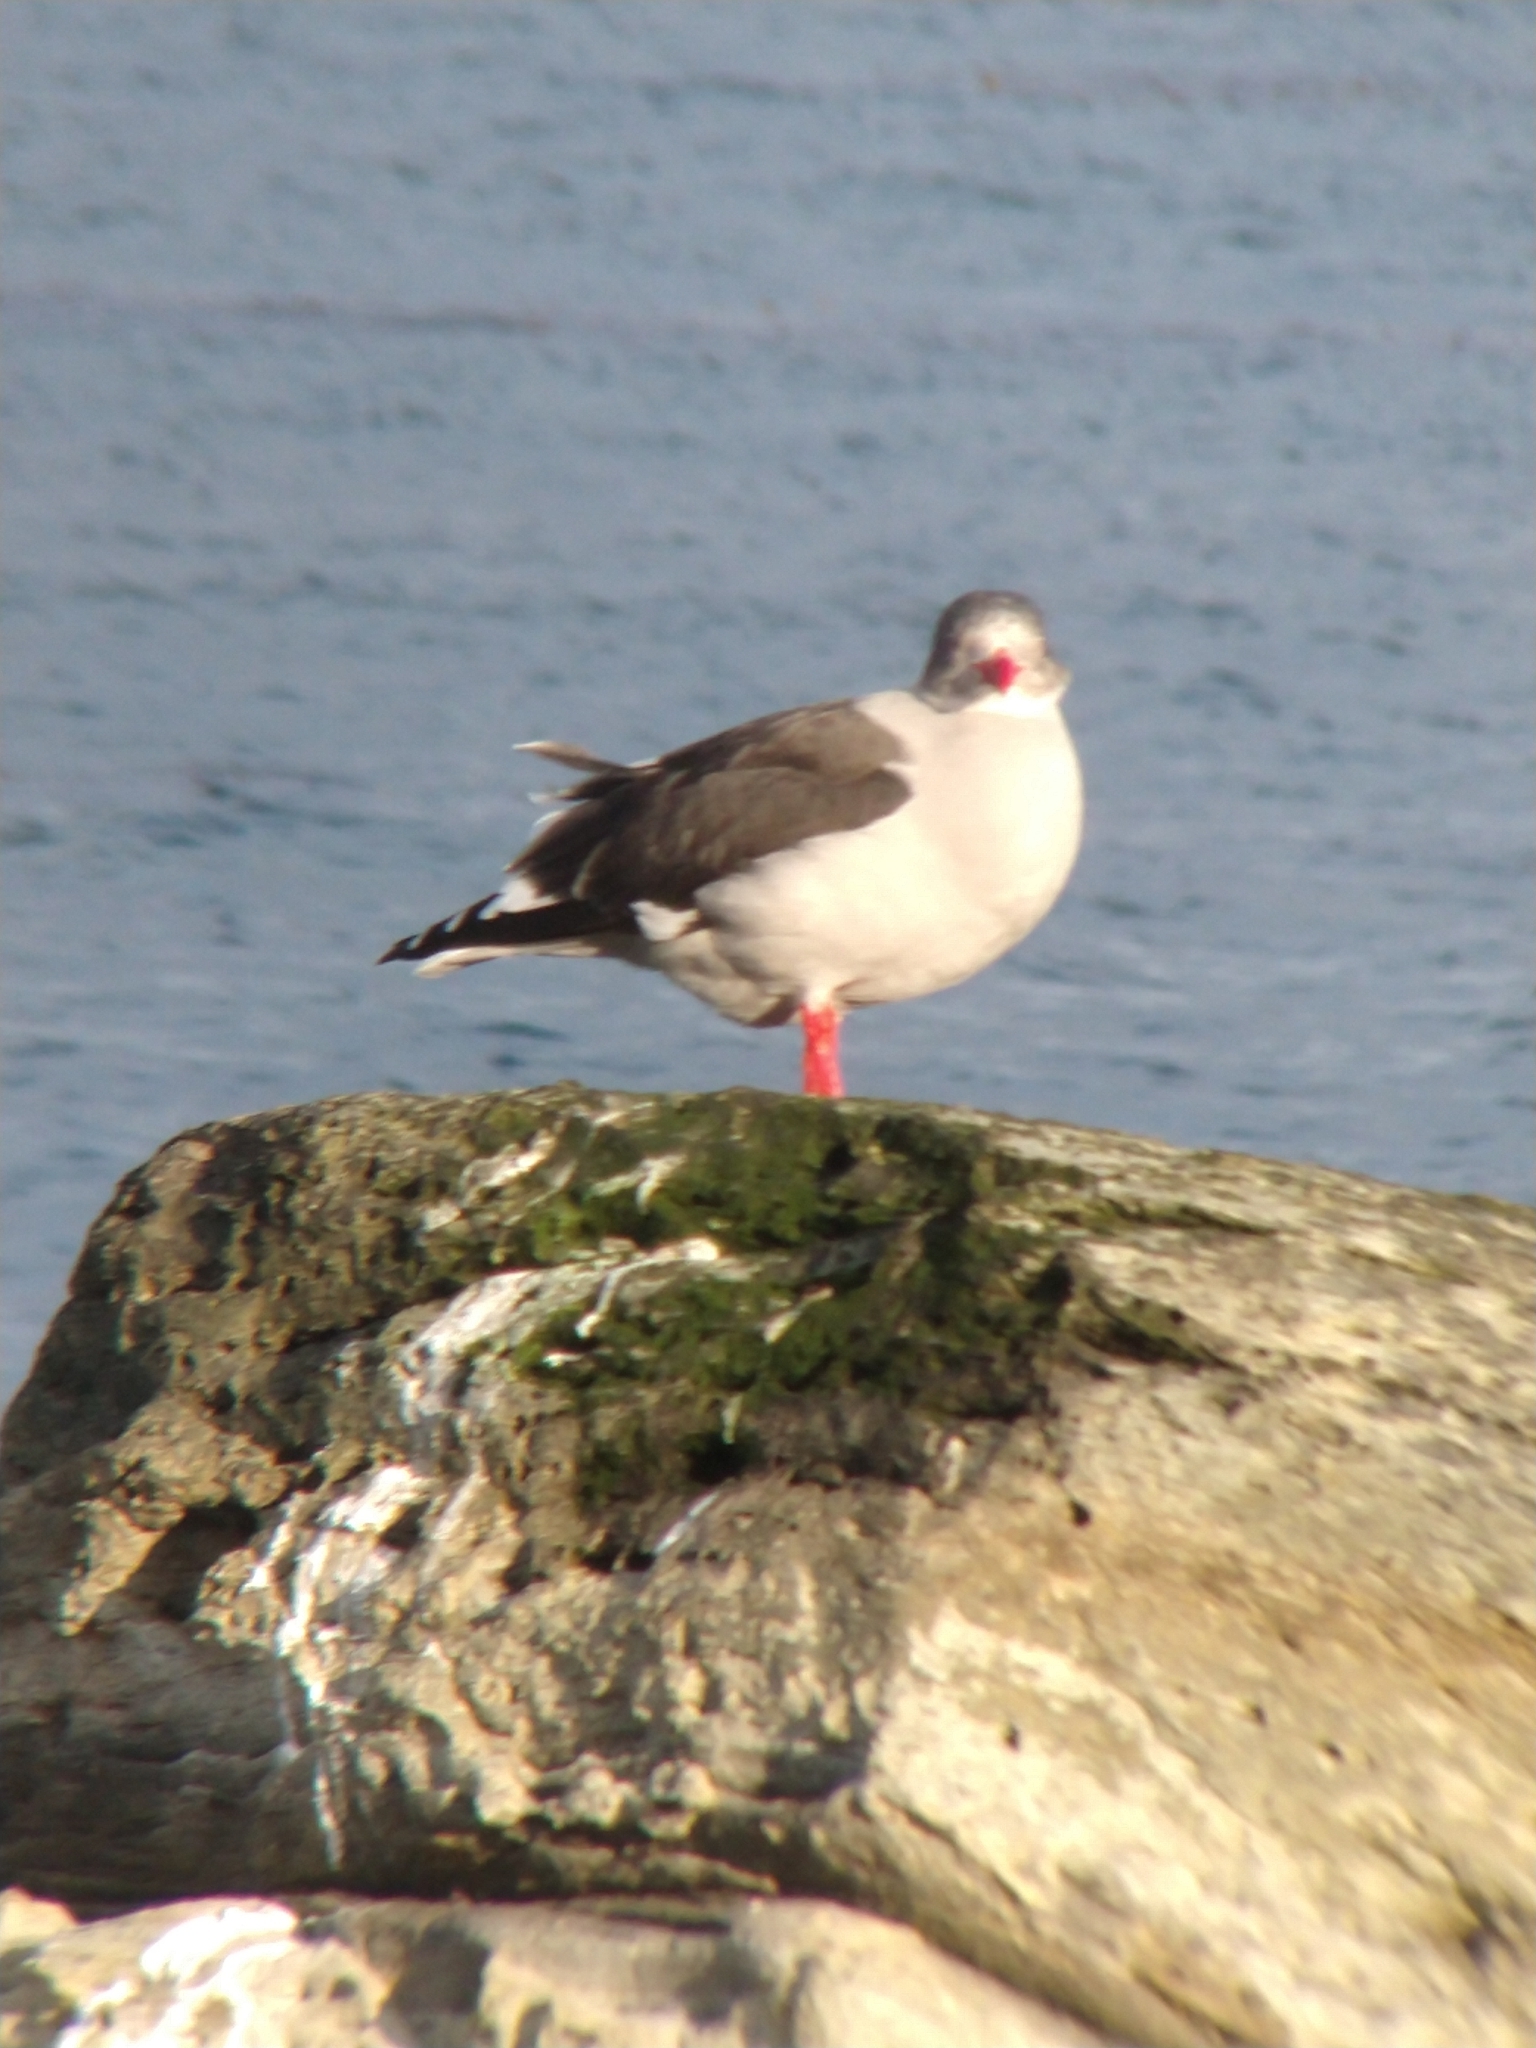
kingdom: Animalia
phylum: Chordata
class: Aves
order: Charadriiformes
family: Laridae
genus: Leucophaeus
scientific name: Leucophaeus scoresbii
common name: Dolphin gull
